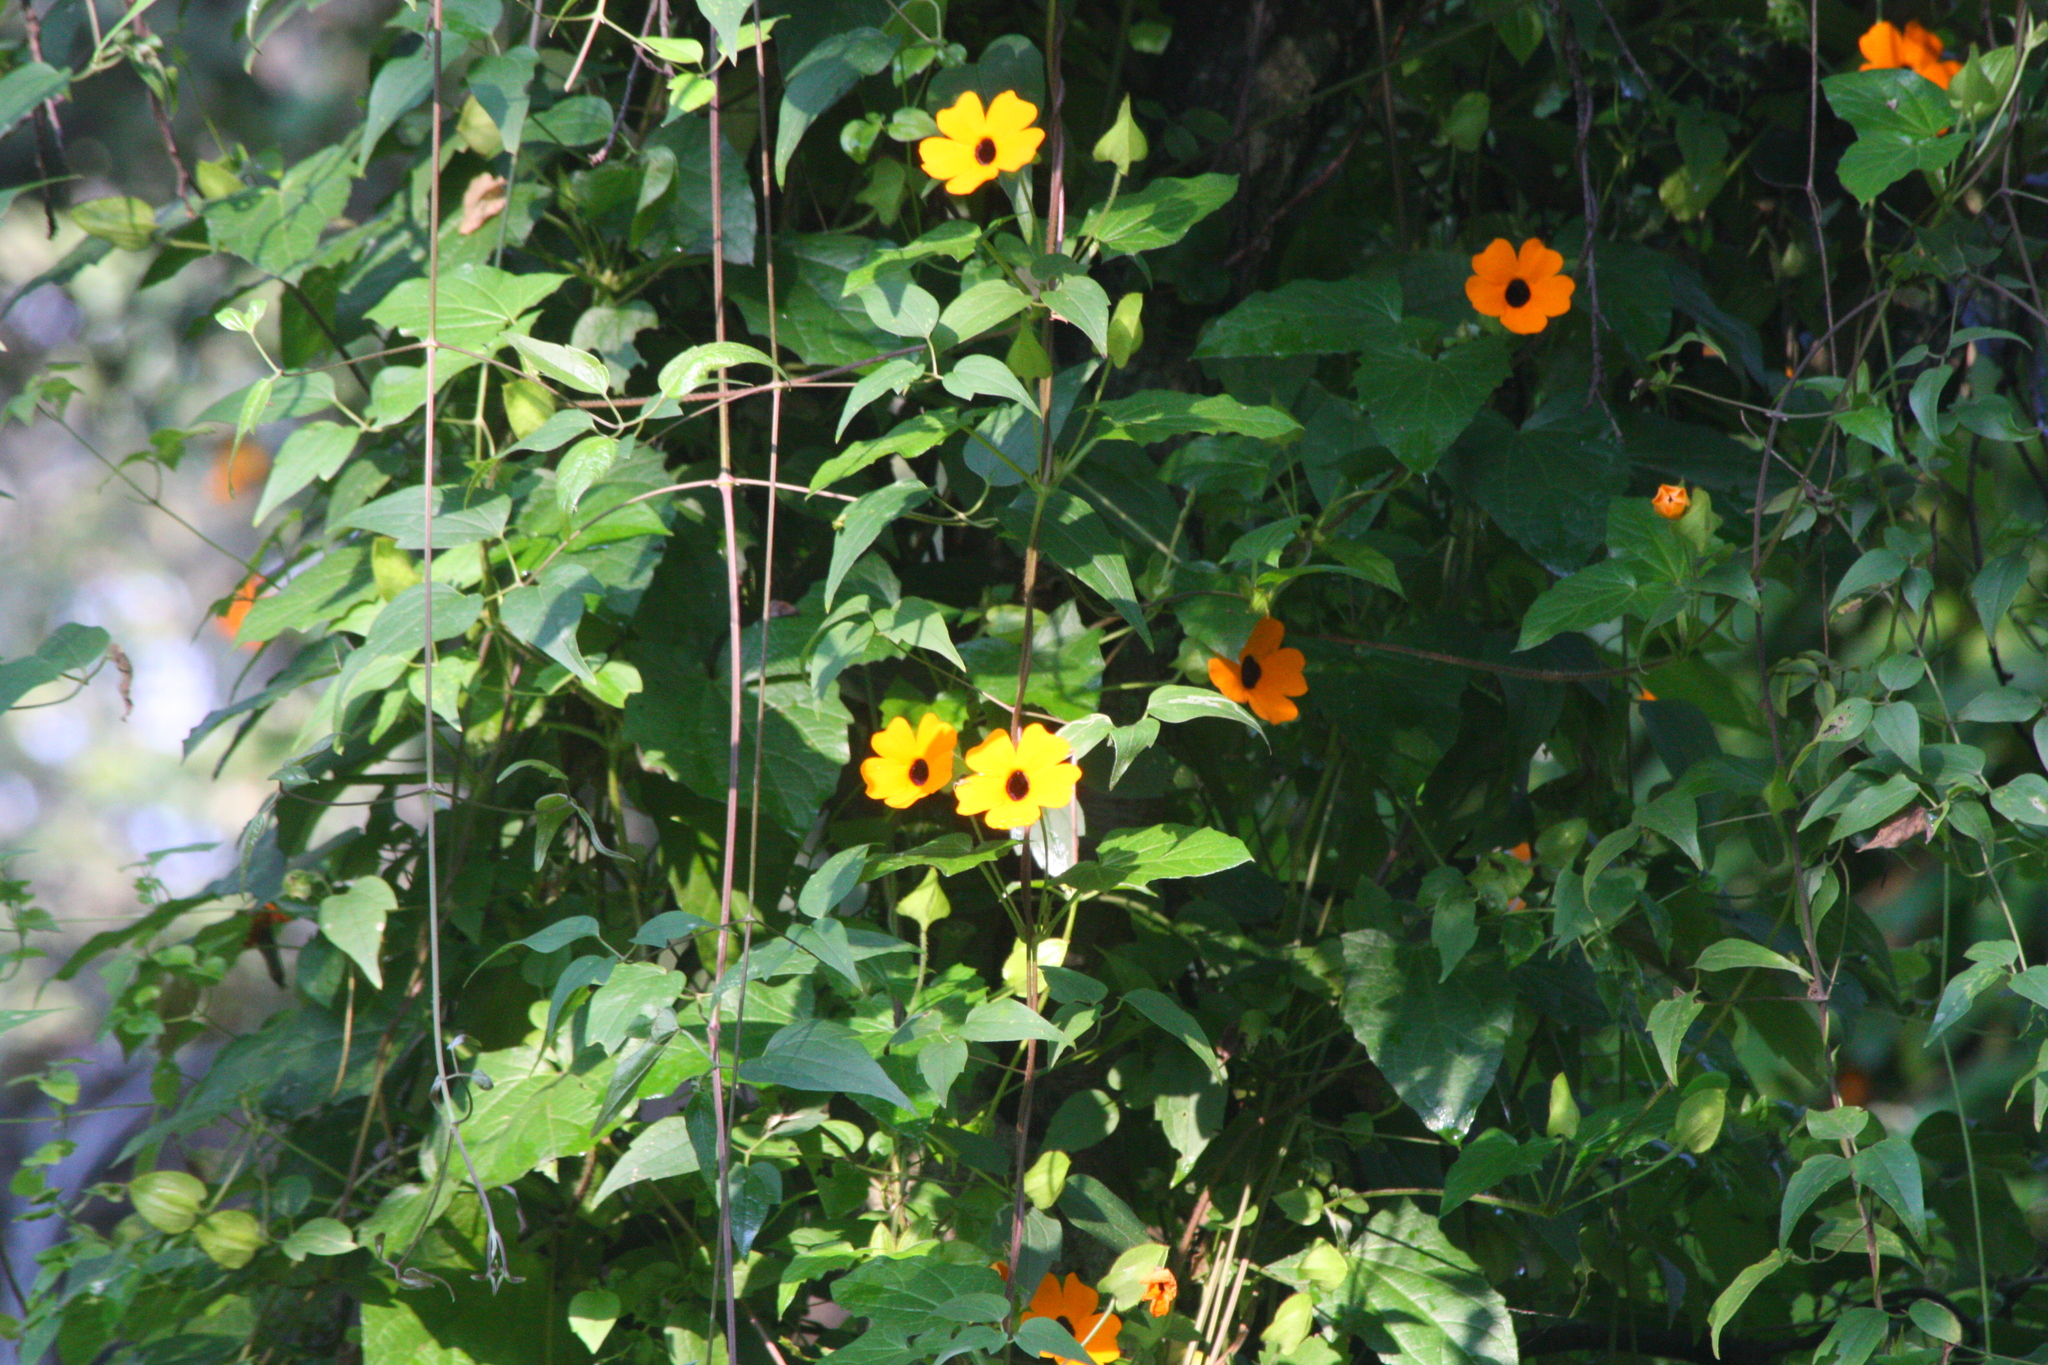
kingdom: Plantae
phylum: Tracheophyta
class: Magnoliopsida
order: Lamiales
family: Acanthaceae
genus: Thunbergia
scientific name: Thunbergia alata
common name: Blackeyed susan vine
